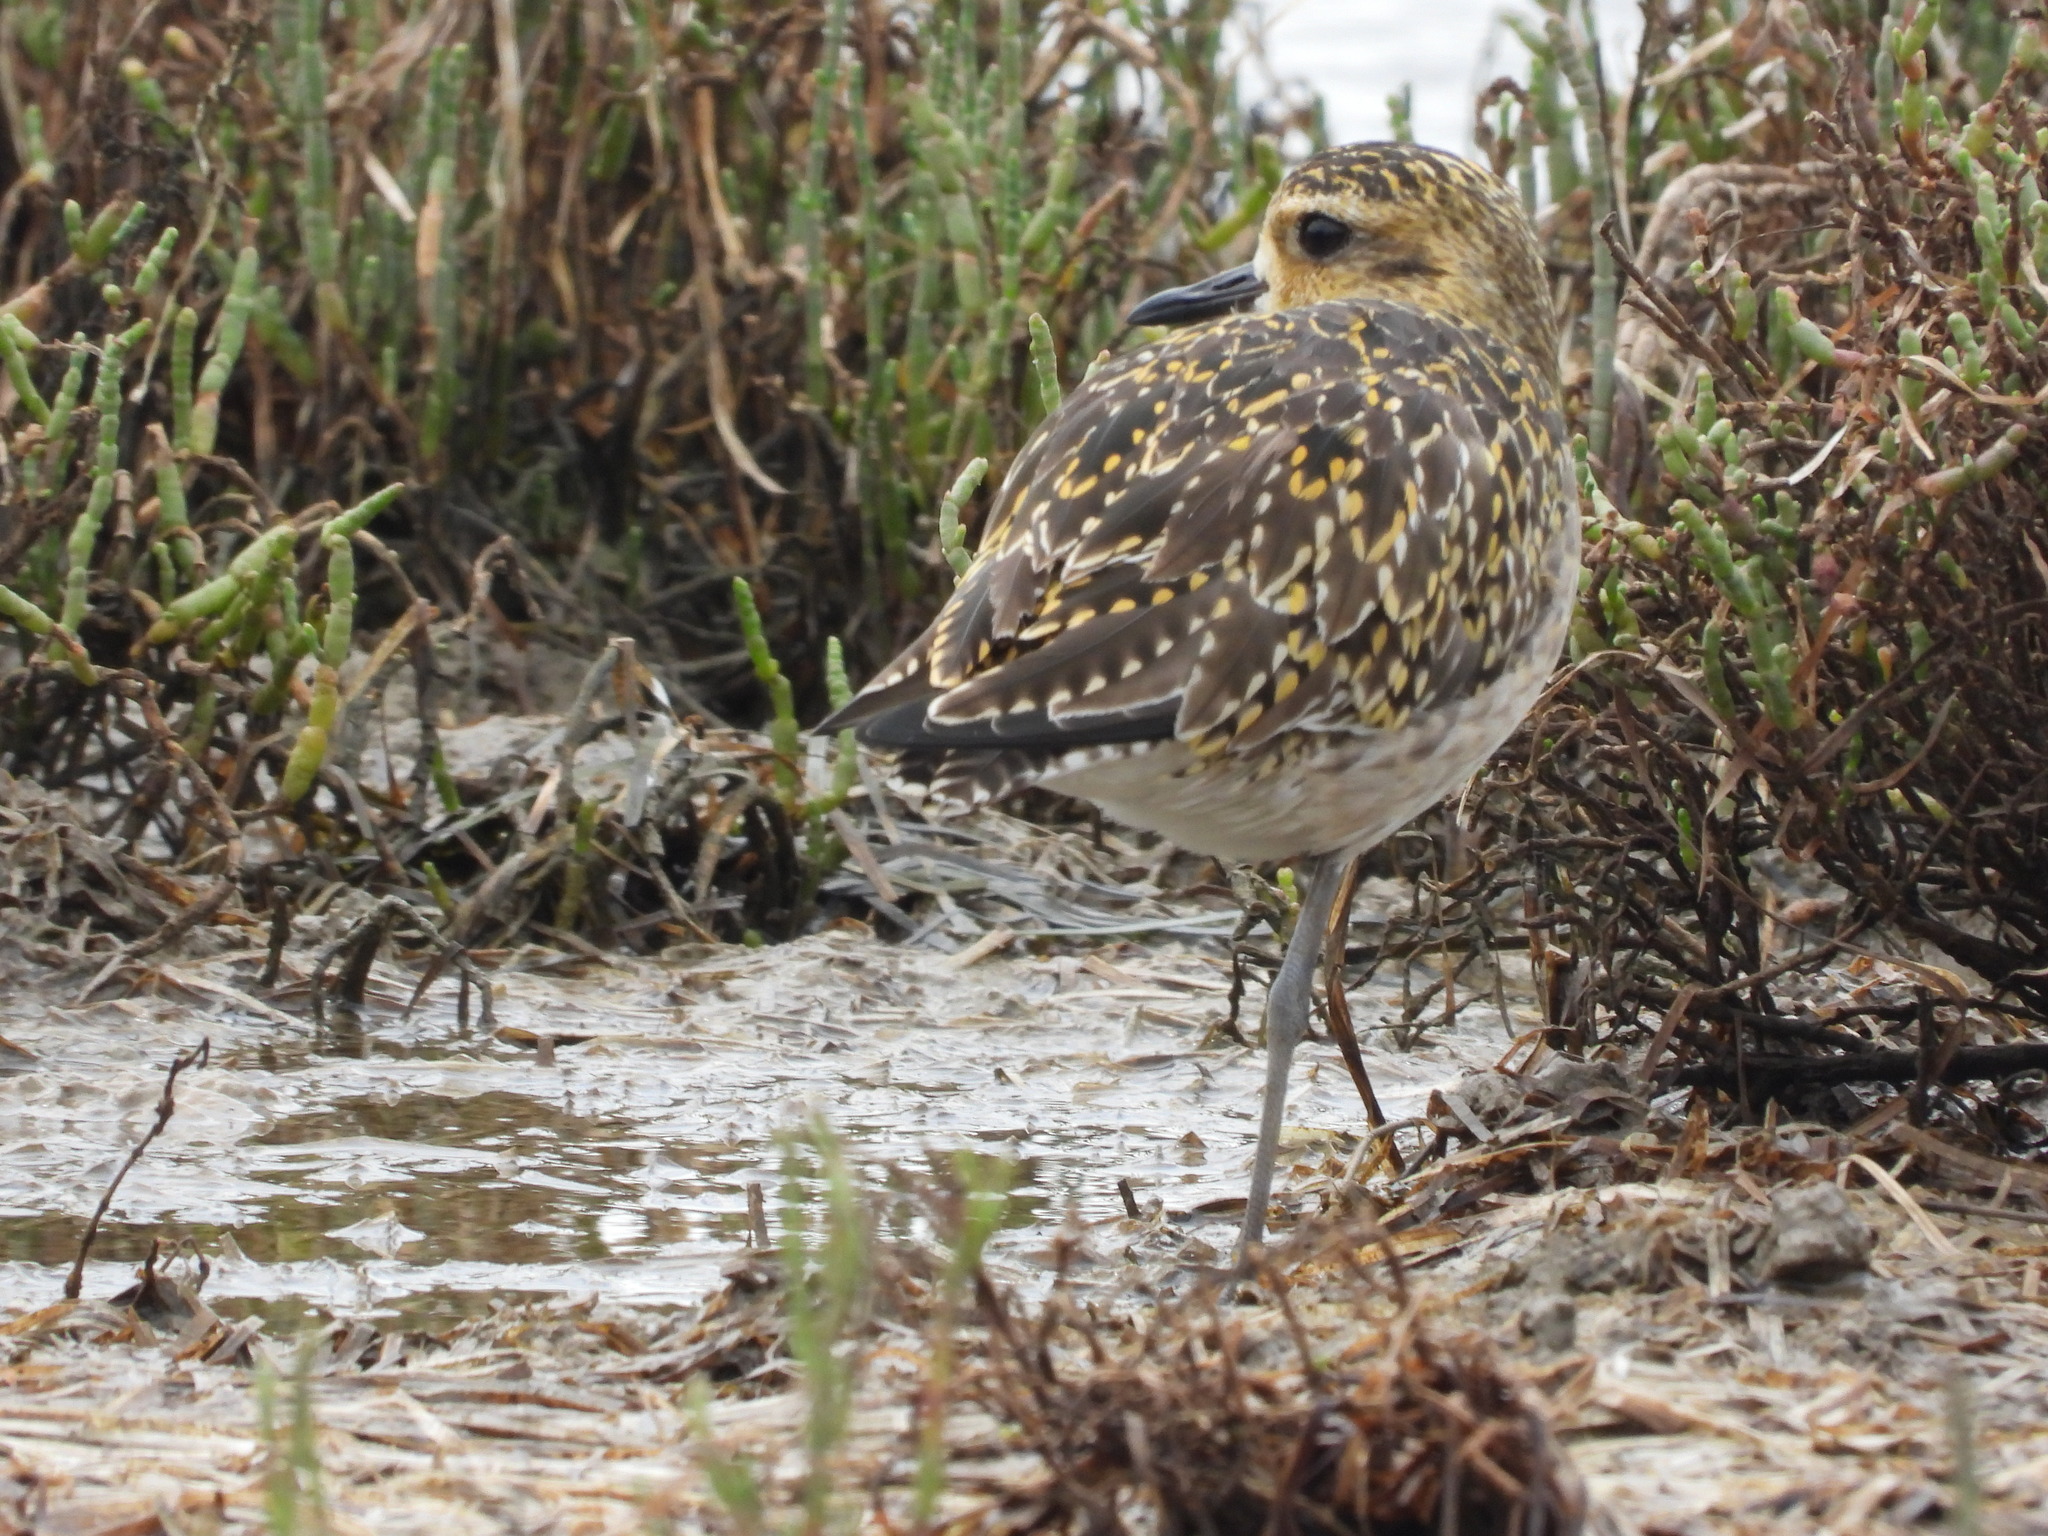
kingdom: Animalia
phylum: Chordata
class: Aves
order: Charadriiformes
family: Charadriidae
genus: Pluvialis
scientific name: Pluvialis fulva
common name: Pacific golden plover
